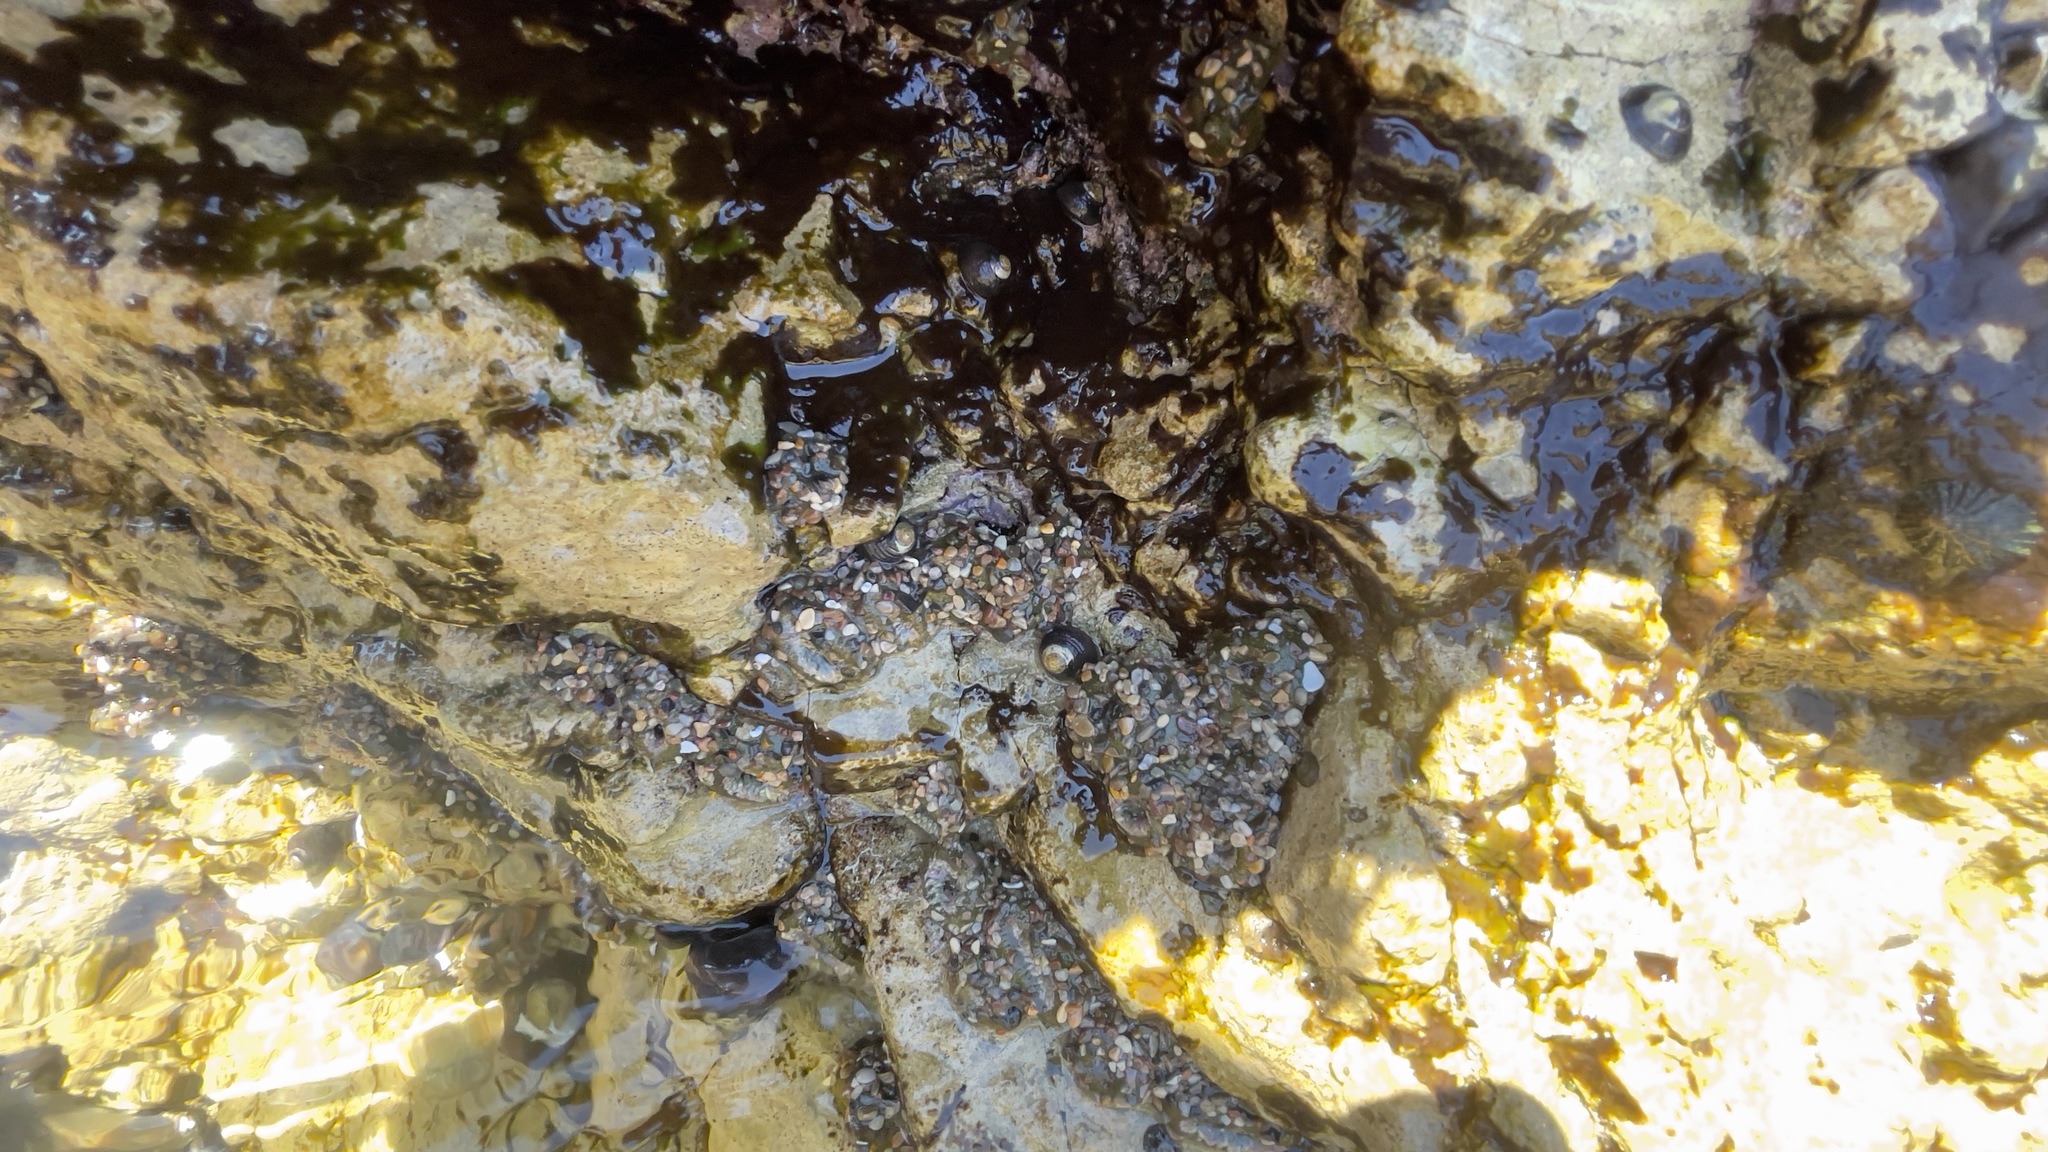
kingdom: Animalia
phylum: Cnidaria
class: Anthozoa
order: Actiniaria
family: Actiniidae
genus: Anthopleura
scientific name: Anthopleura elegantissima
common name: Clonal anemone
